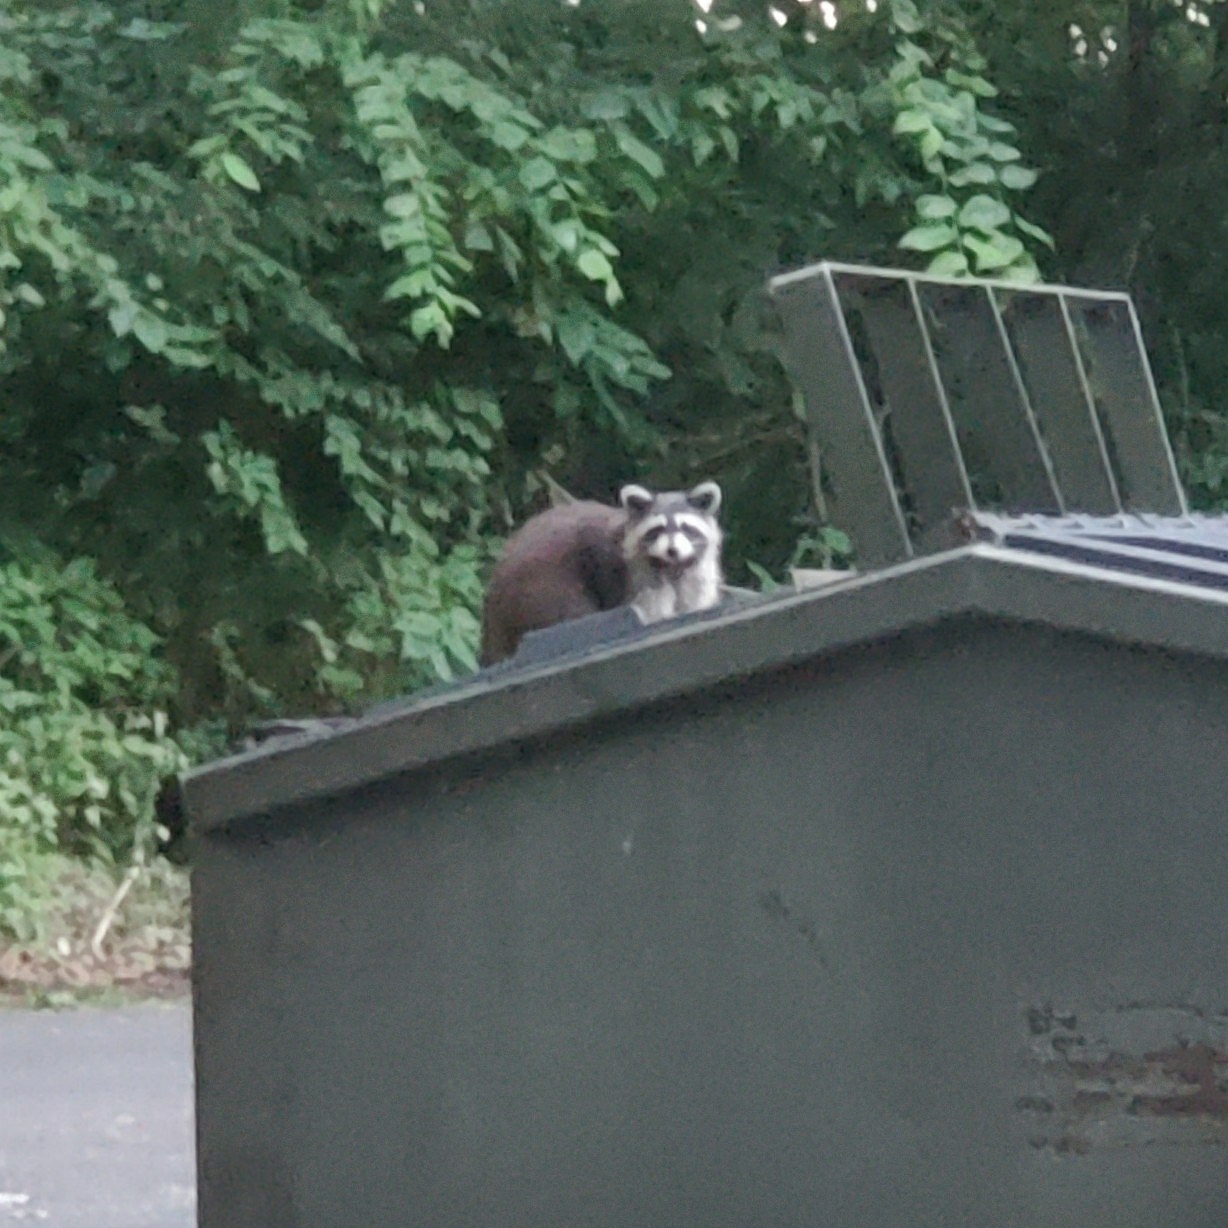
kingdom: Animalia
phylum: Chordata
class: Mammalia
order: Carnivora
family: Procyonidae
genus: Procyon
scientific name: Procyon lotor
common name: Raccoon
